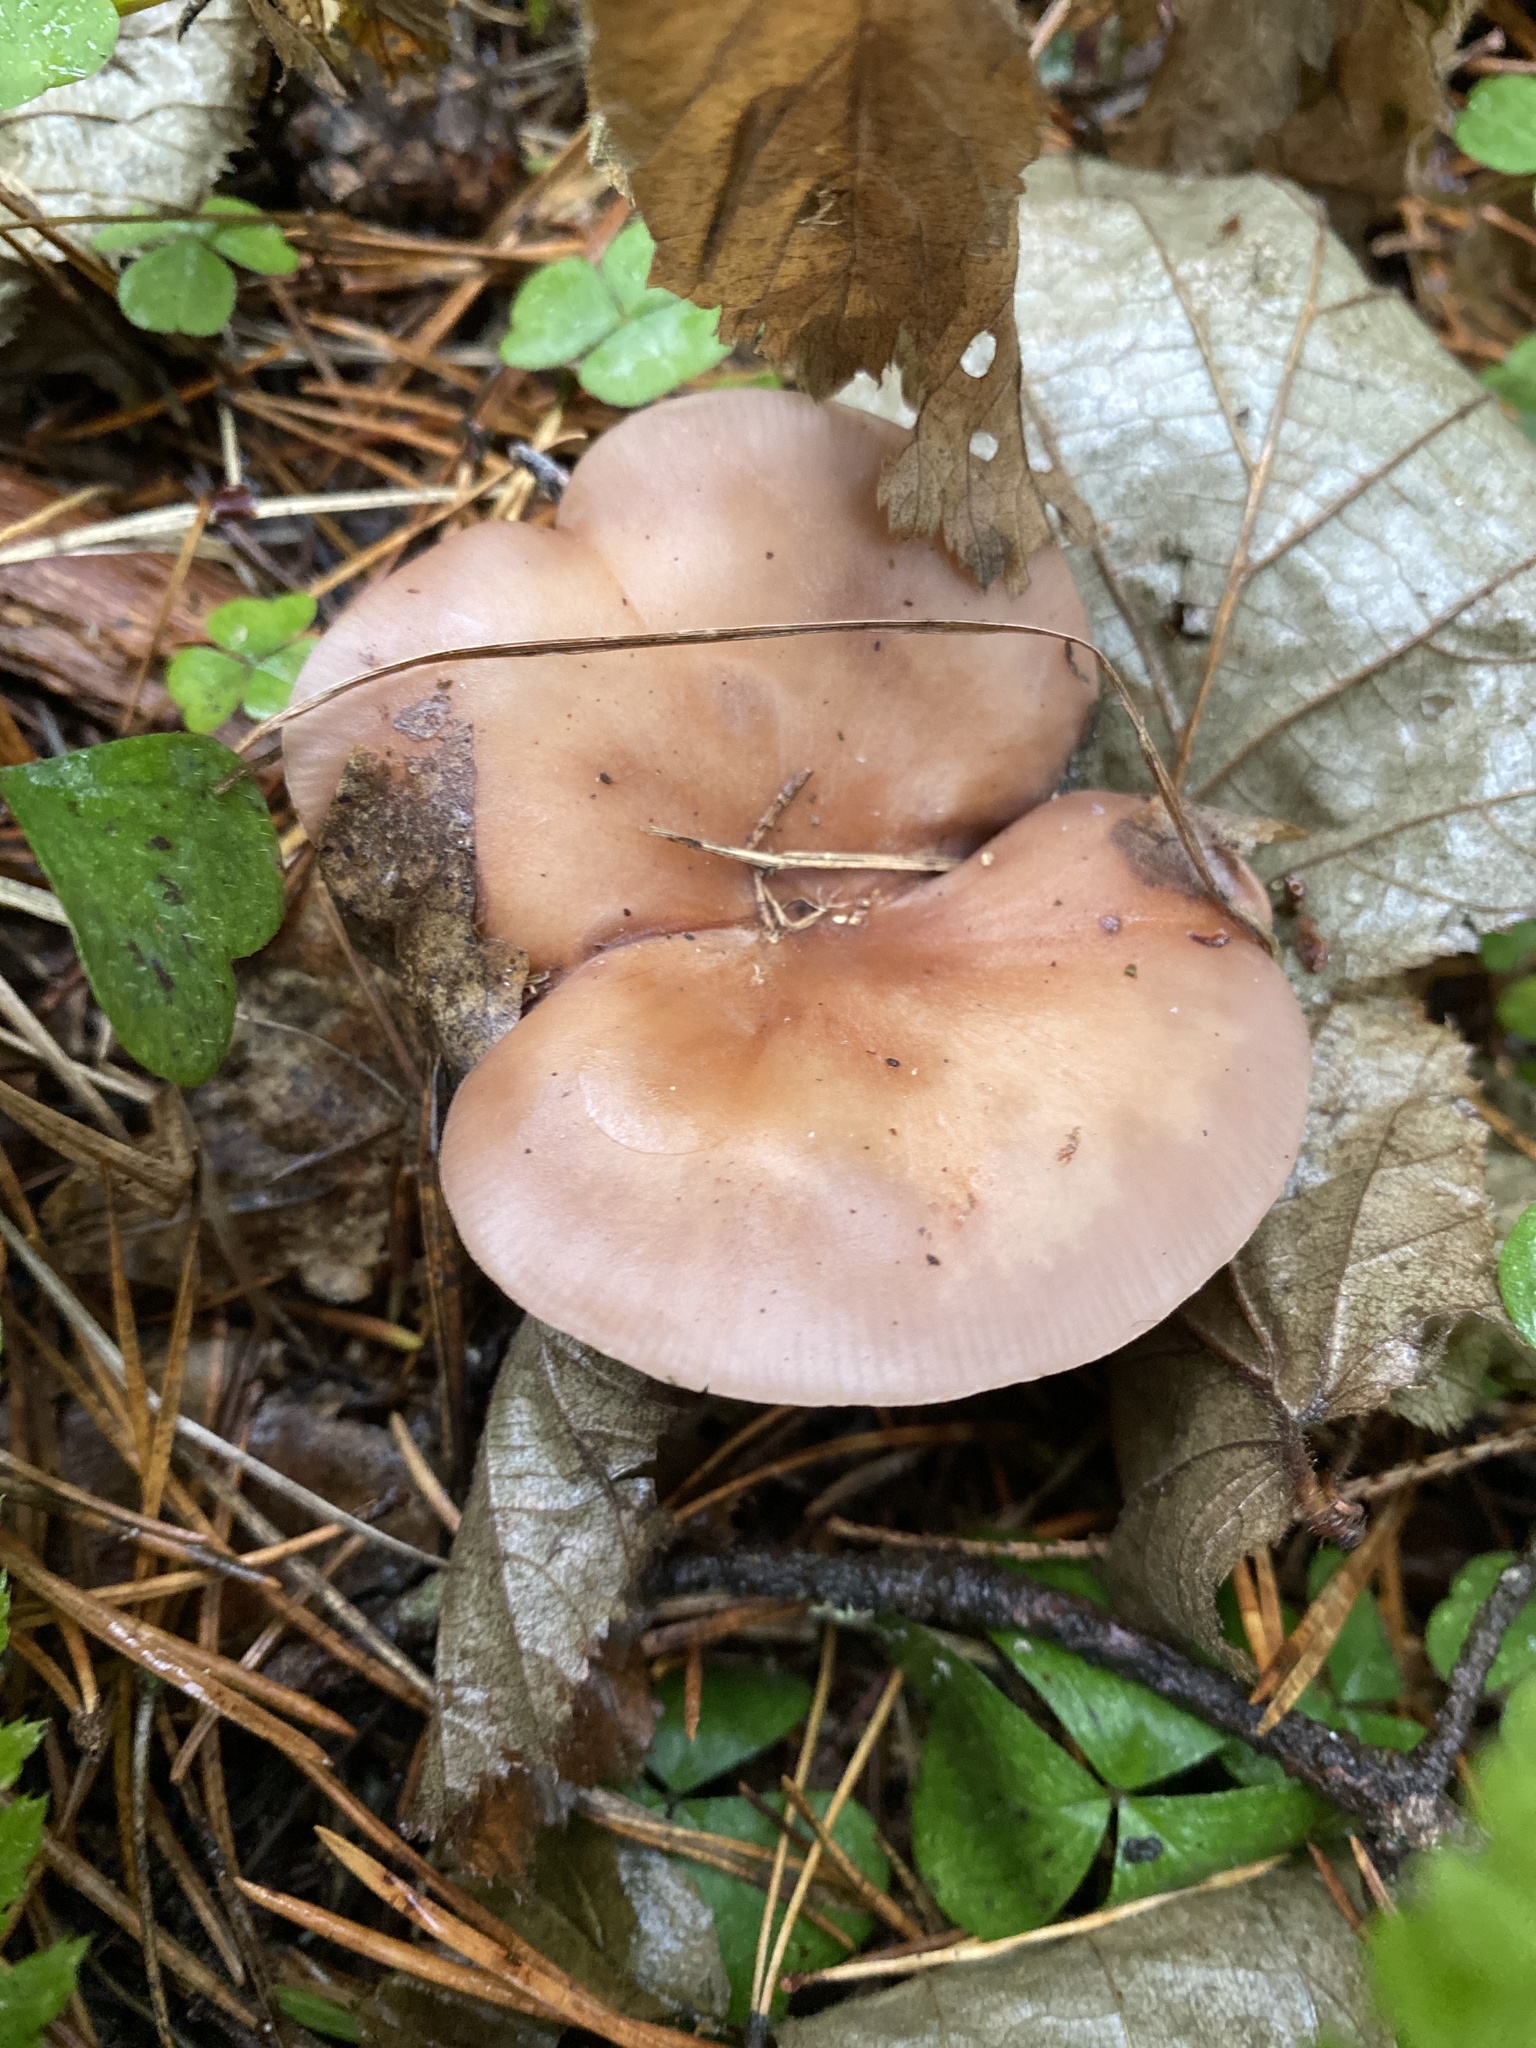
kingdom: Fungi
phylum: Basidiomycota
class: Agaricomycetes
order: Agaricales
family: Tricholomataceae
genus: Collybia
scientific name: Collybia
